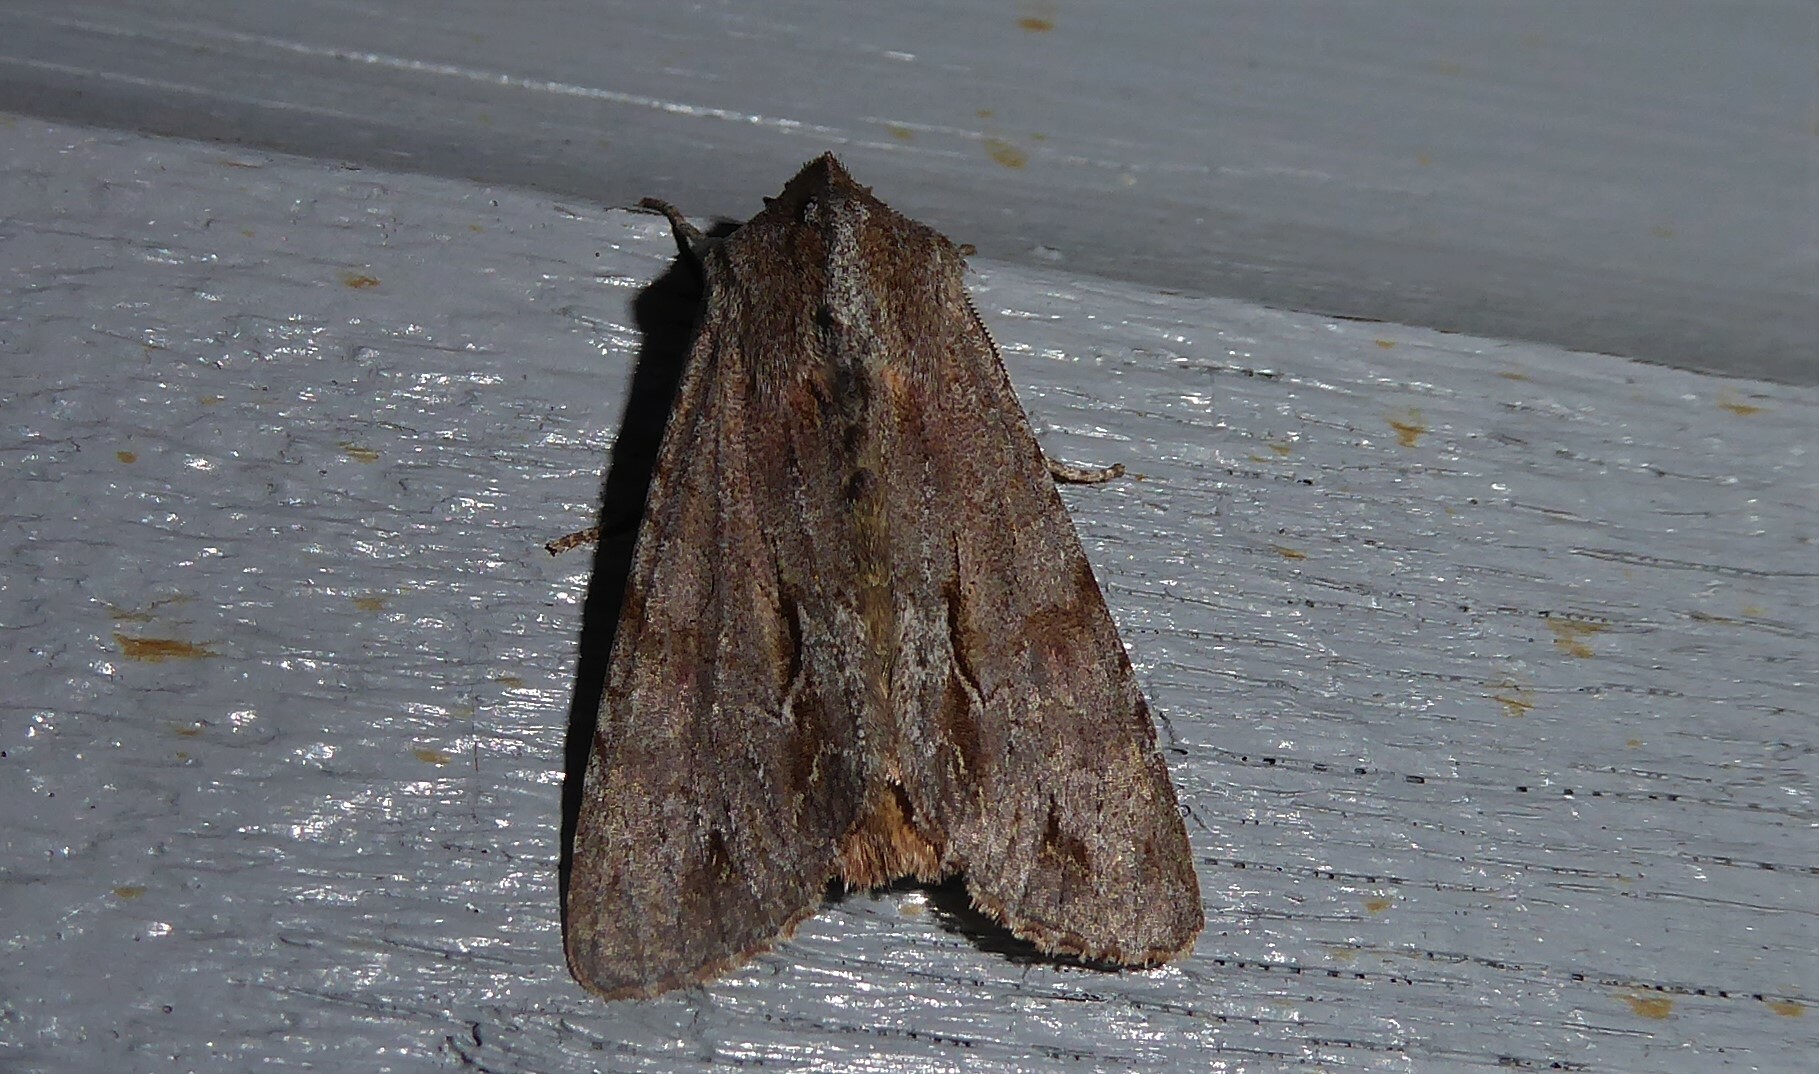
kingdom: Animalia
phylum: Arthropoda
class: Insecta
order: Lepidoptera
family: Noctuidae
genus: Ichneutica
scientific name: Ichneutica
